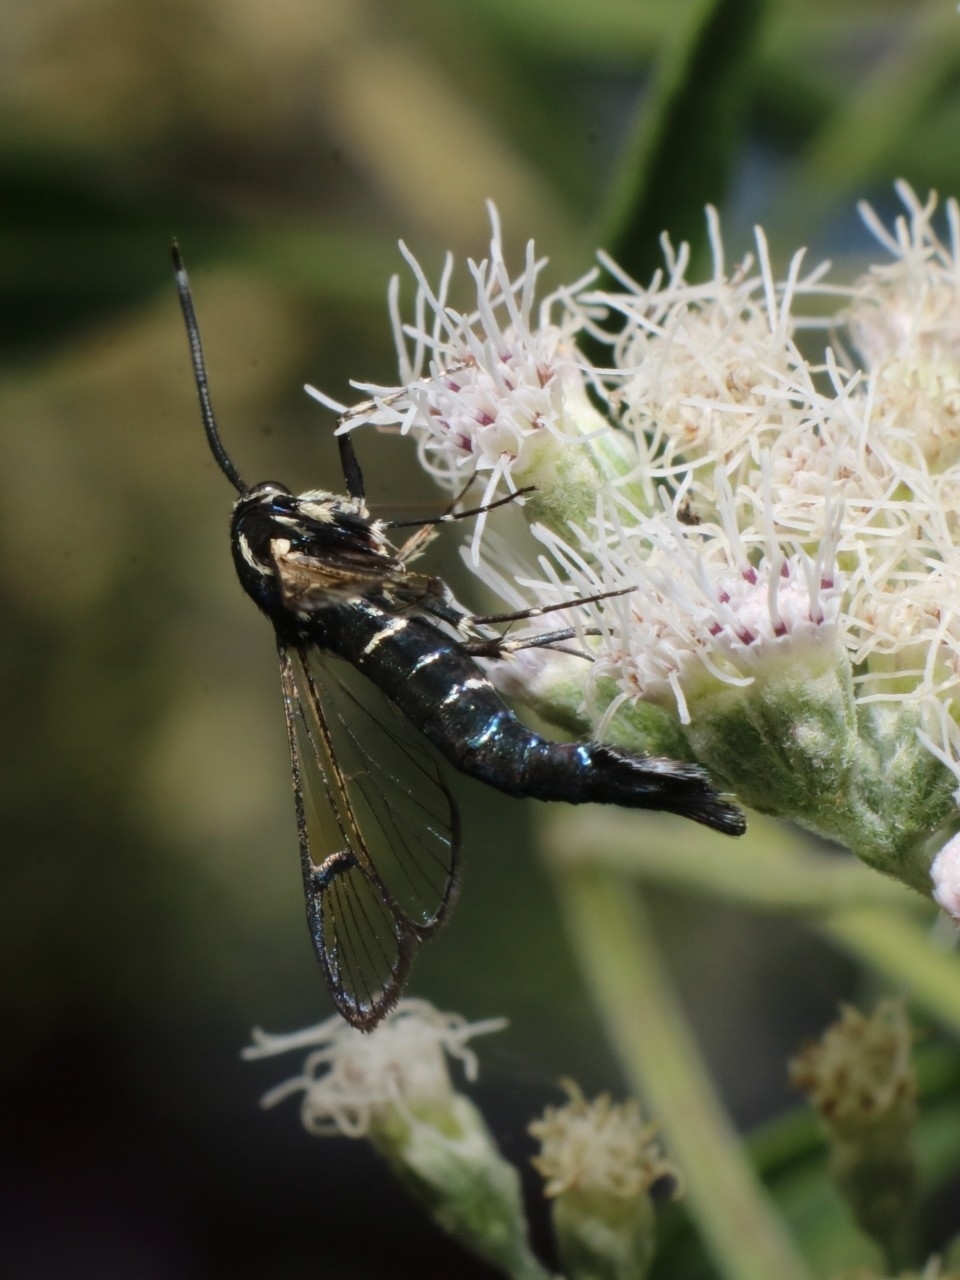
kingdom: Animalia
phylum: Arthropoda
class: Insecta
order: Lepidoptera
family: Sesiidae
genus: Synanthedon
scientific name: Synanthedon exitiosa
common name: Peachtree borer moth
